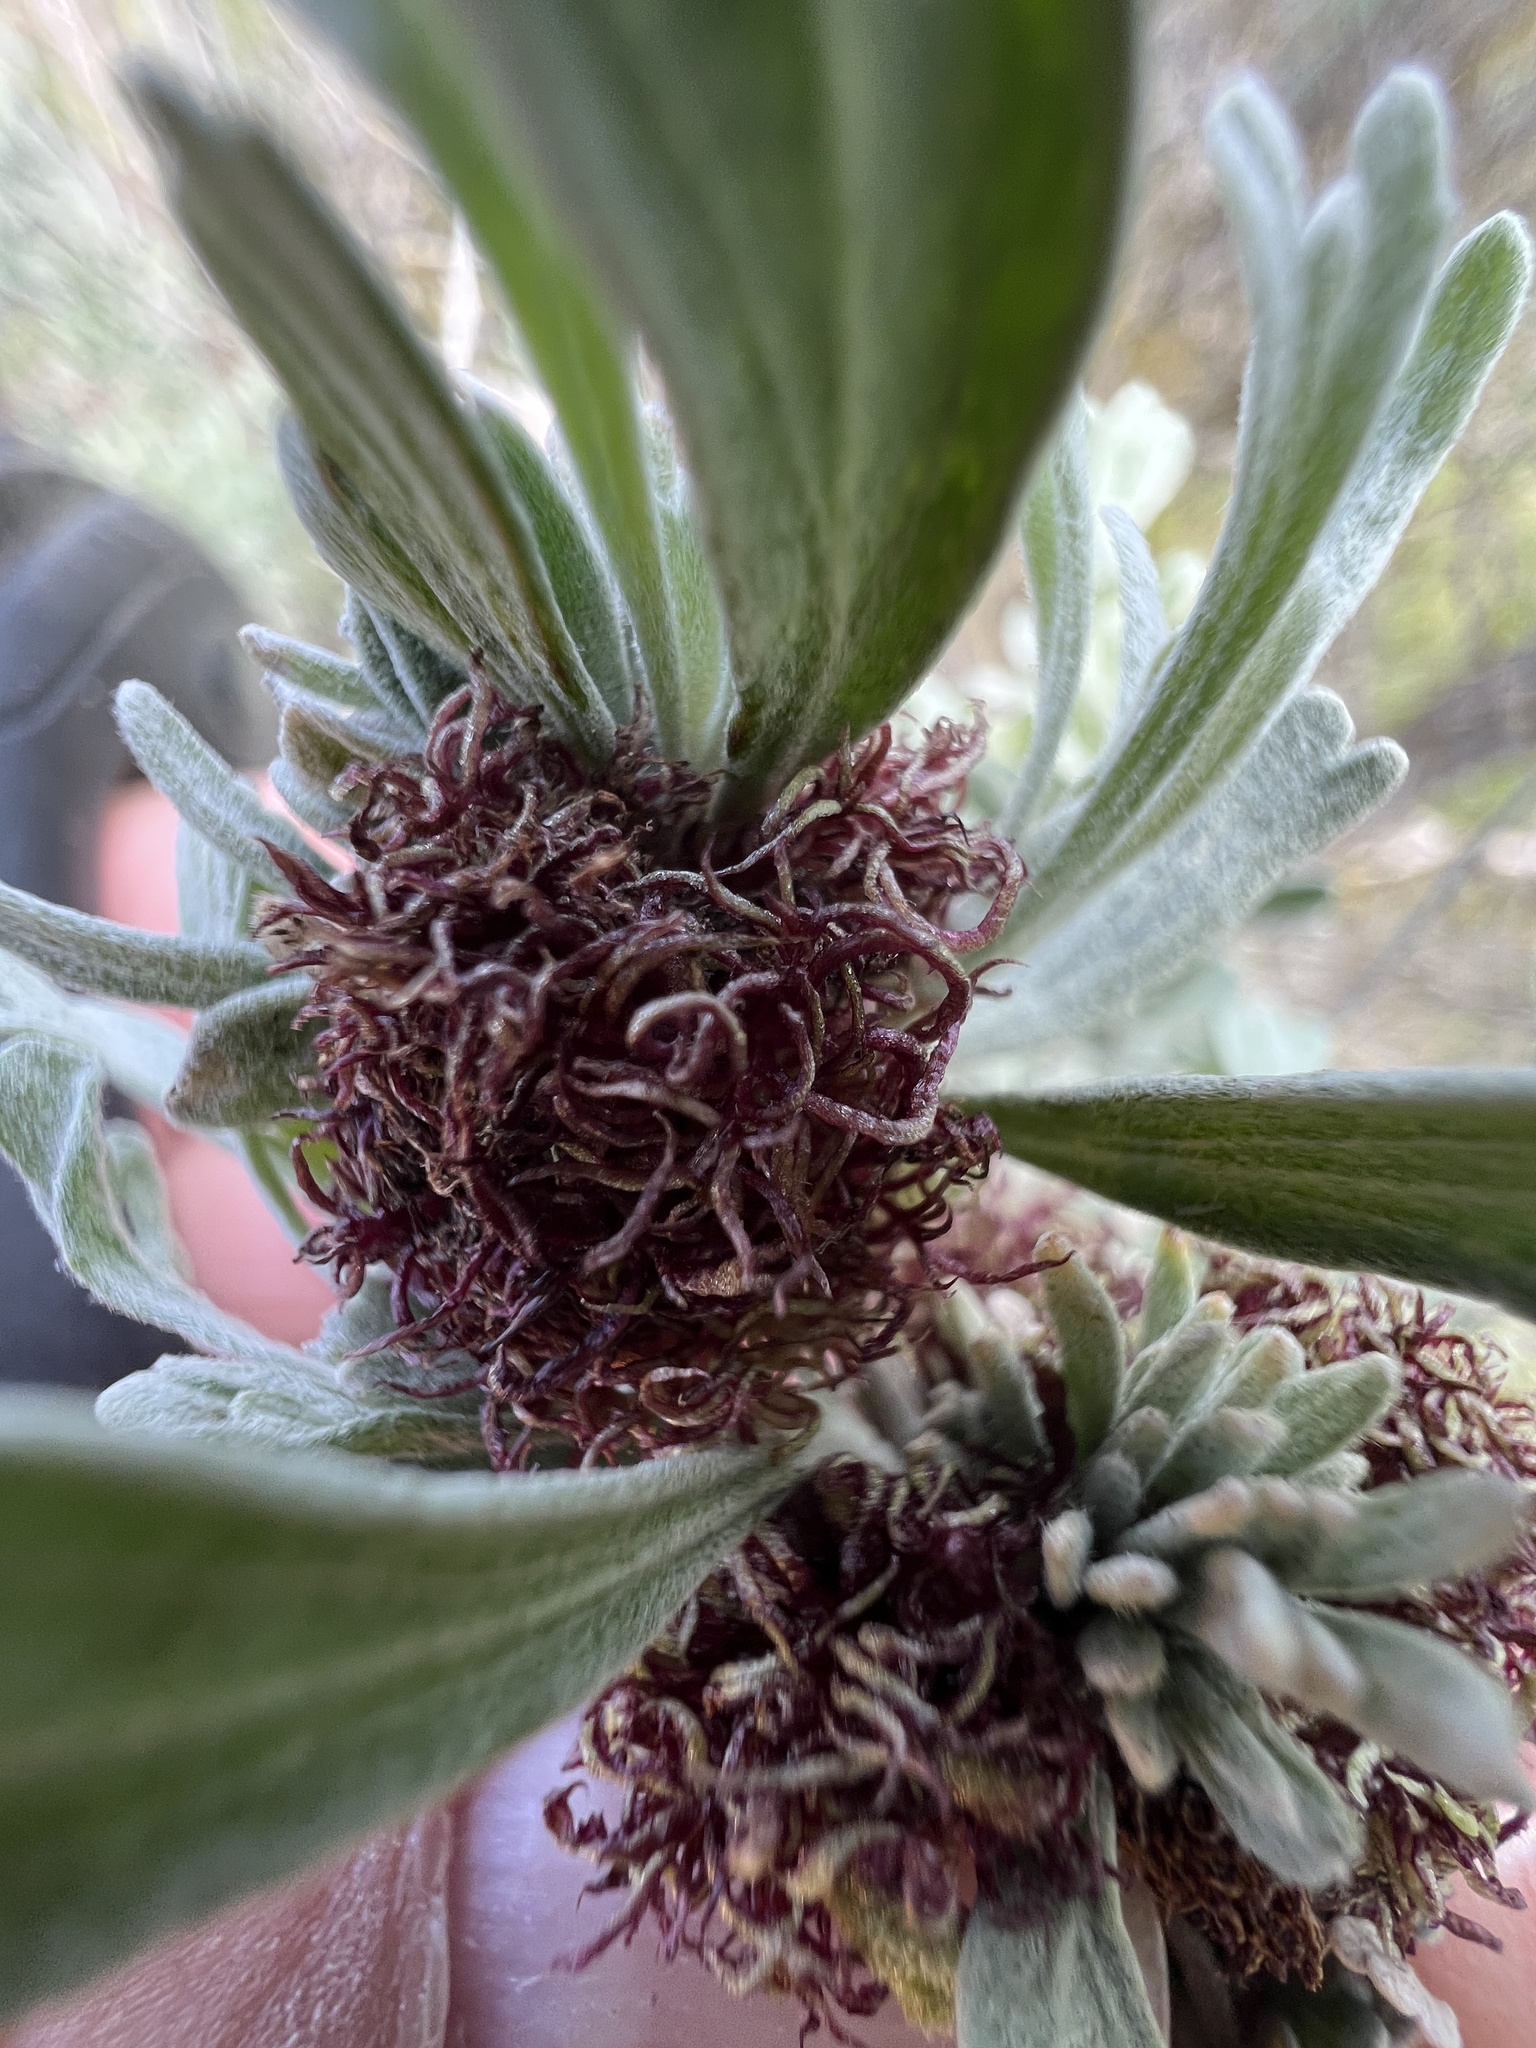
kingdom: Animalia
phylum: Arthropoda
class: Insecta
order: Diptera
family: Cecidomyiidae
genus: Rhopalomyia
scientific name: Rhopalomyia medusa
